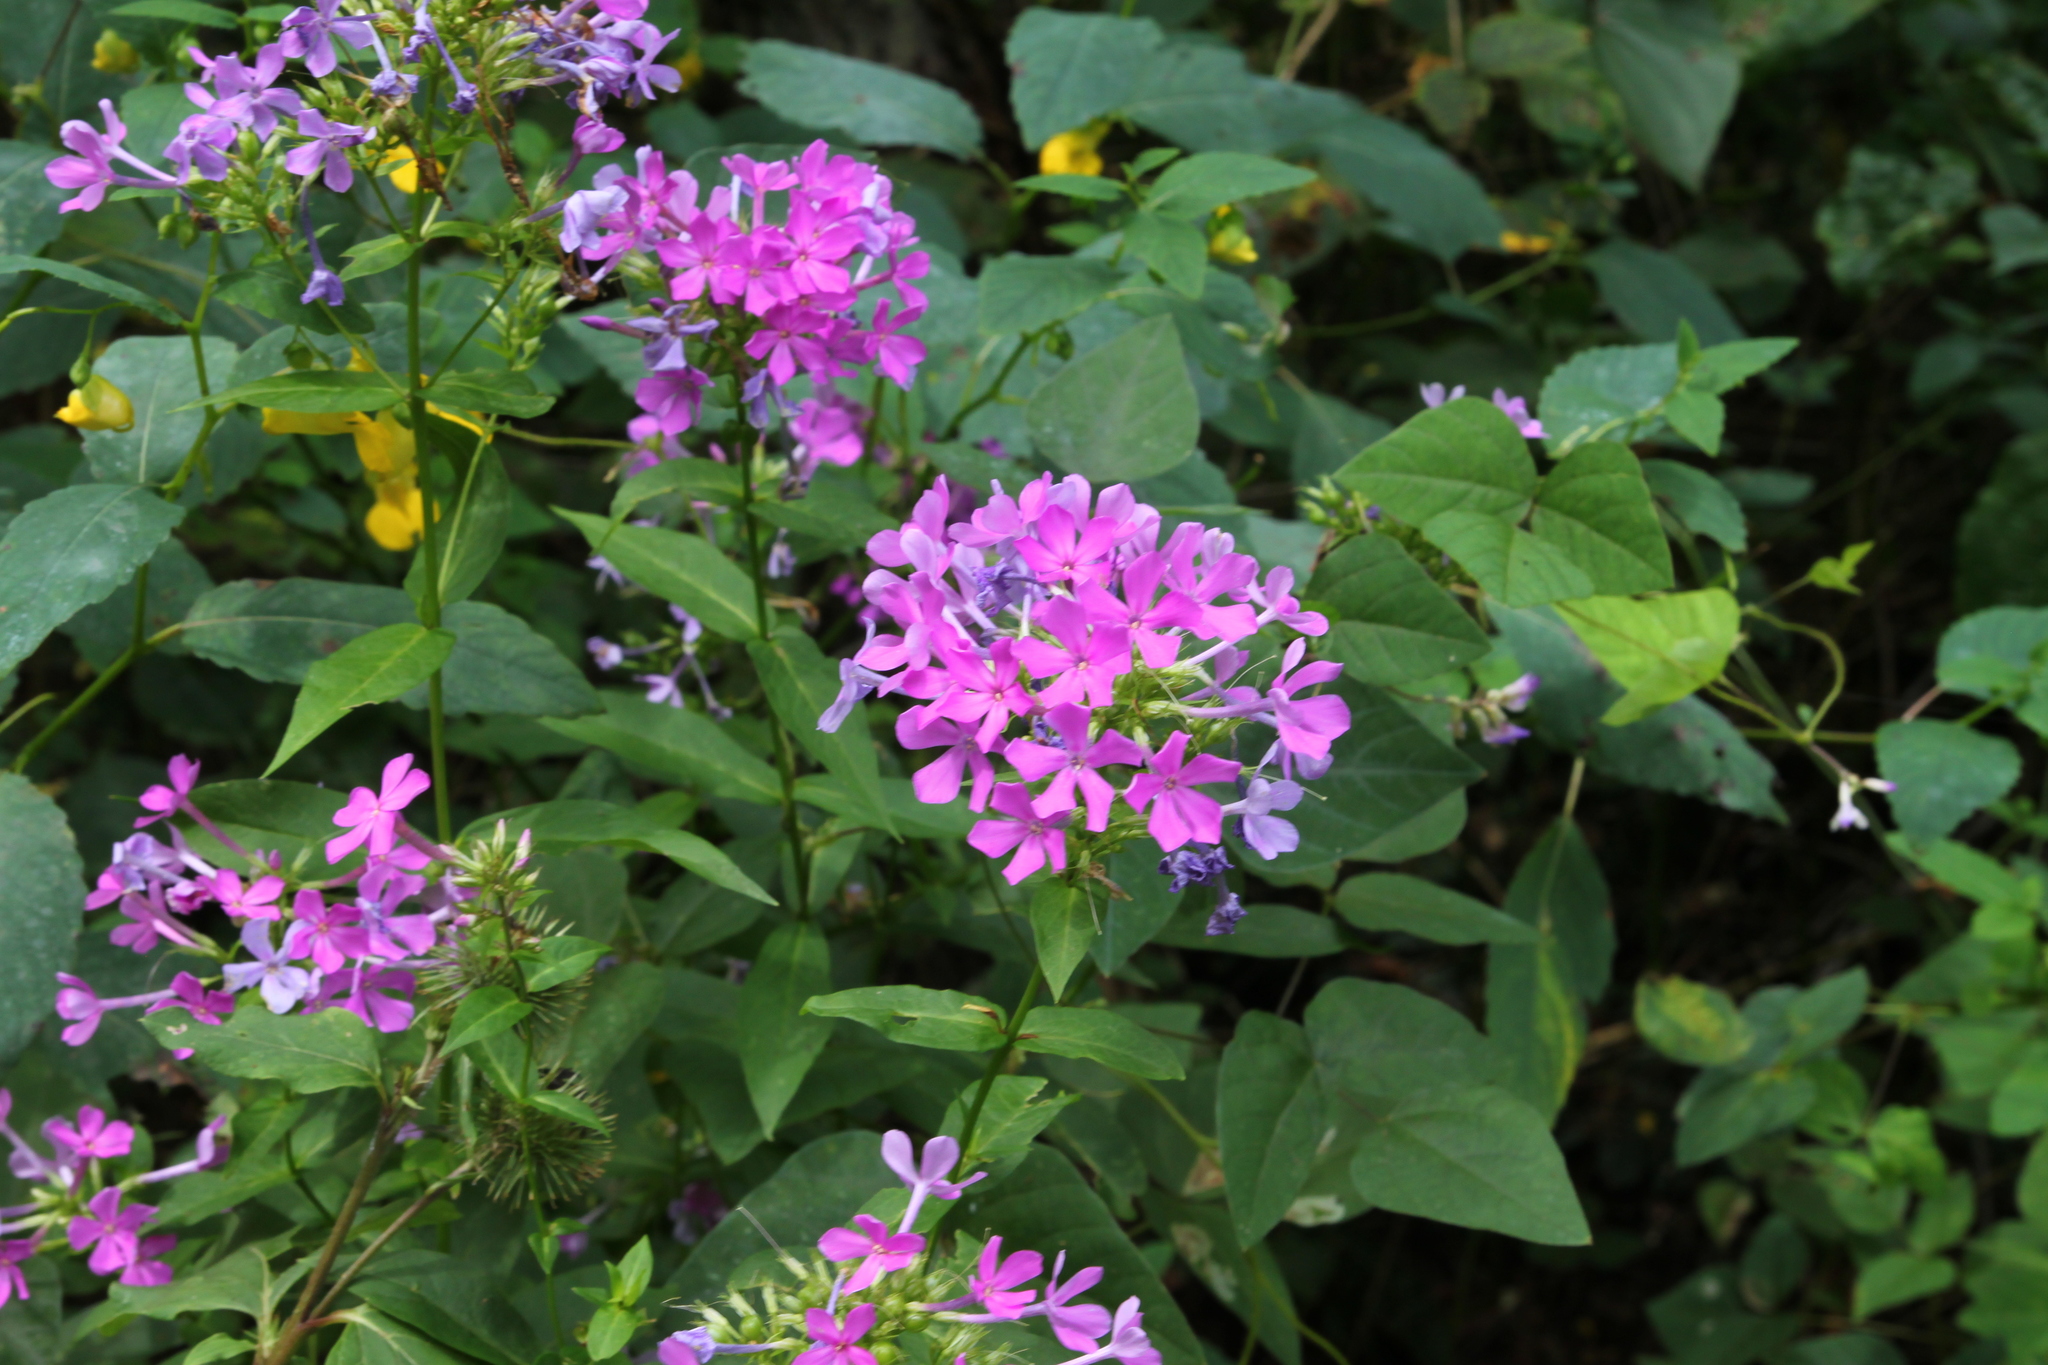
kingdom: Plantae
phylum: Tracheophyta
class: Magnoliopsida
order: Ericales
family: Polemoniaceae
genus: Phlox
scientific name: Phlox paniculata
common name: Fall phlox
